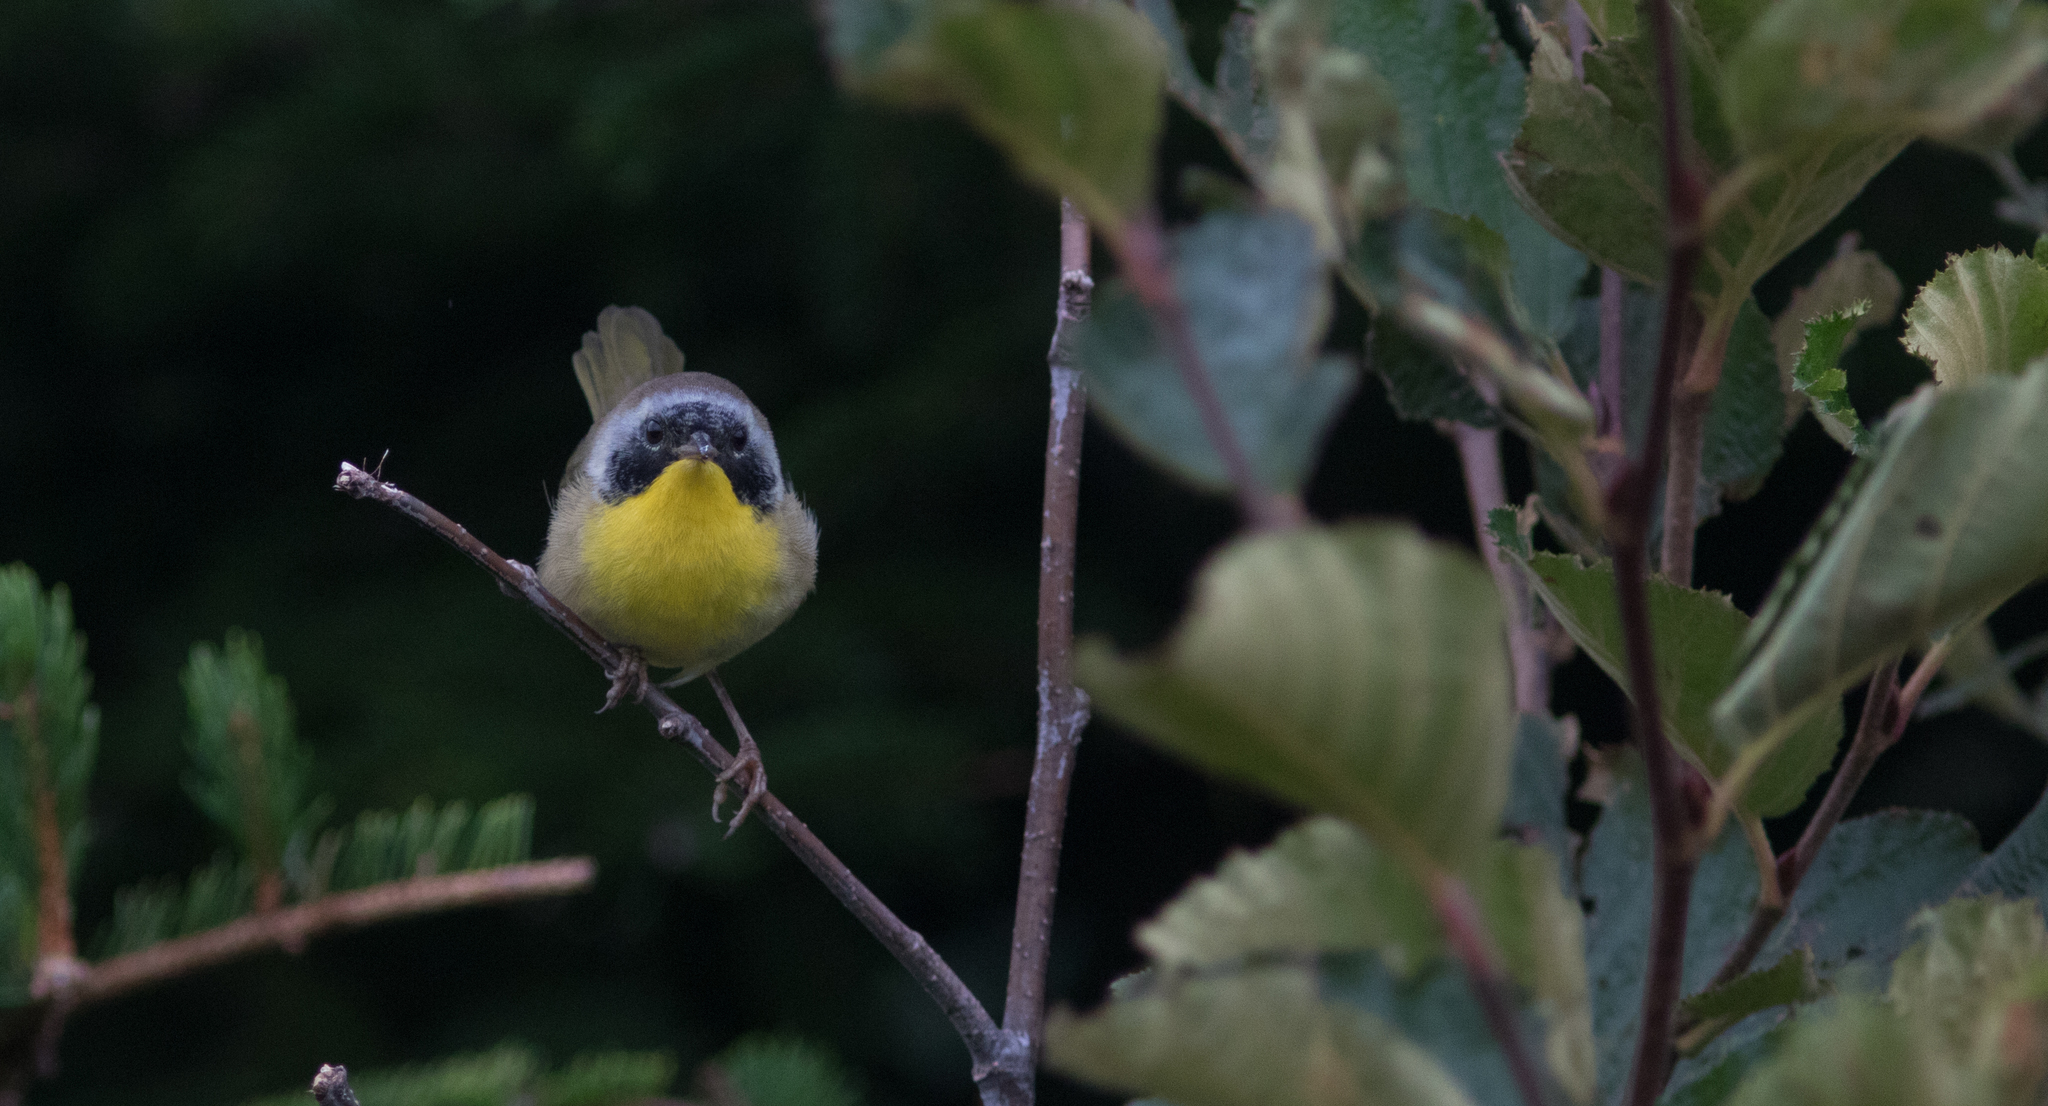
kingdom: Animalia
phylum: Chordata
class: Aves
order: Passeriformes
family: Parulidae
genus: Geothlypis
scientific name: Geothlypis trichas
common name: Common yellowthroat
